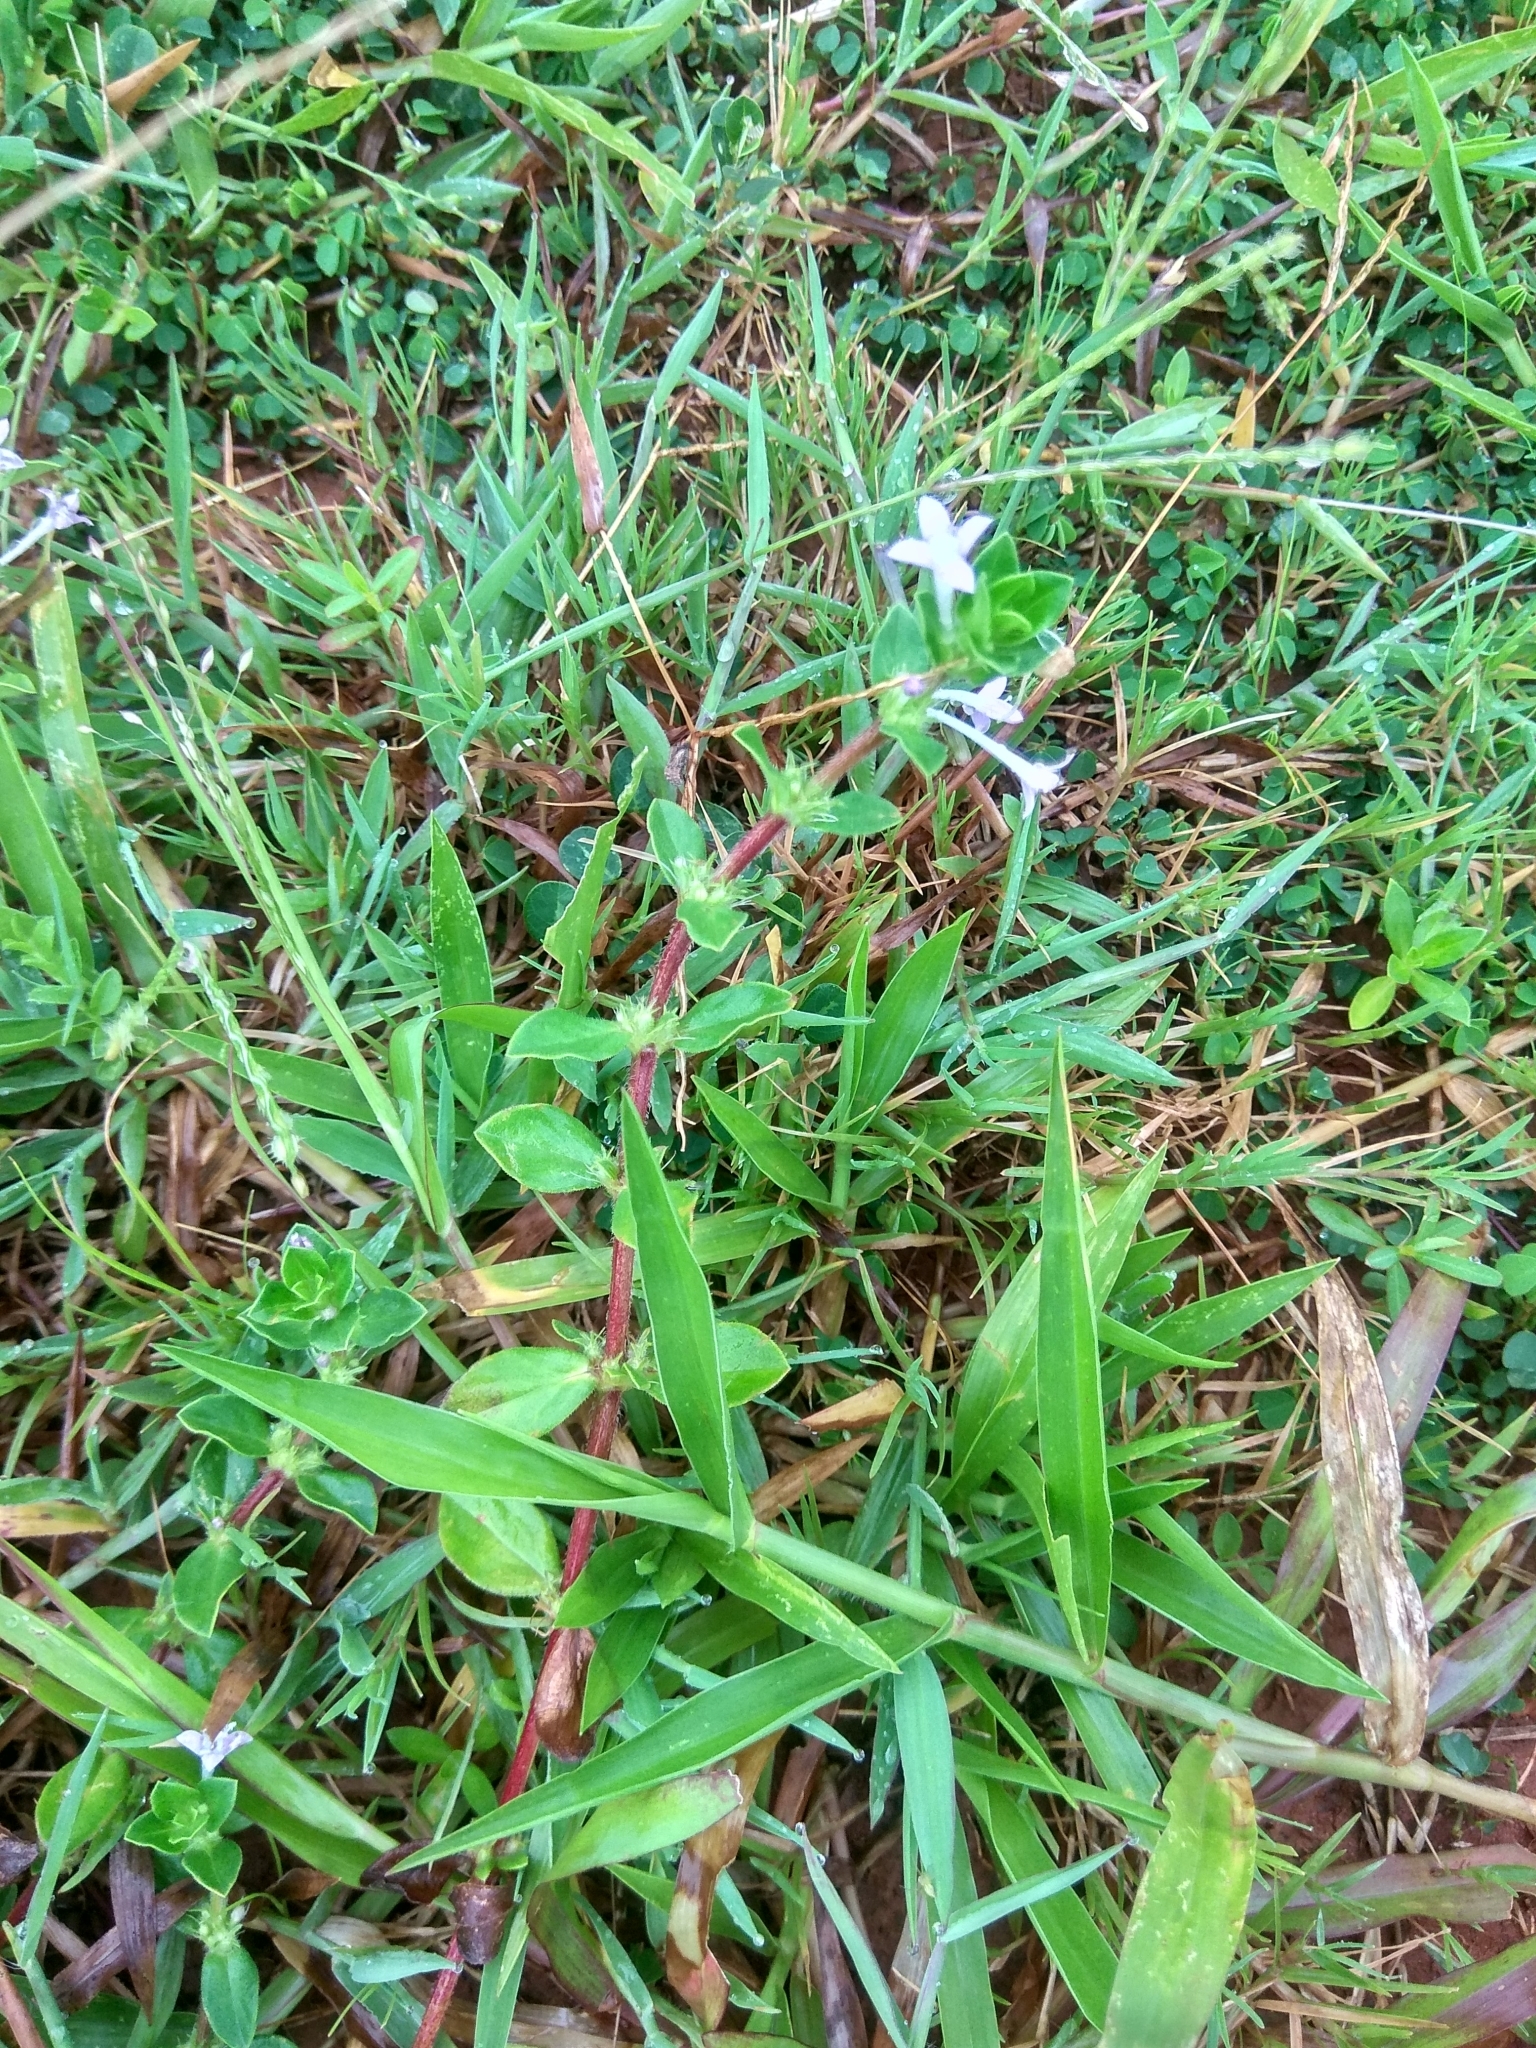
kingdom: Plantae
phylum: Tracheophyta
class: Magnoliopsida
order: Gentianales
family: Rubiaceae
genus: Spermacoce
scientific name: Spermacoce articularis
